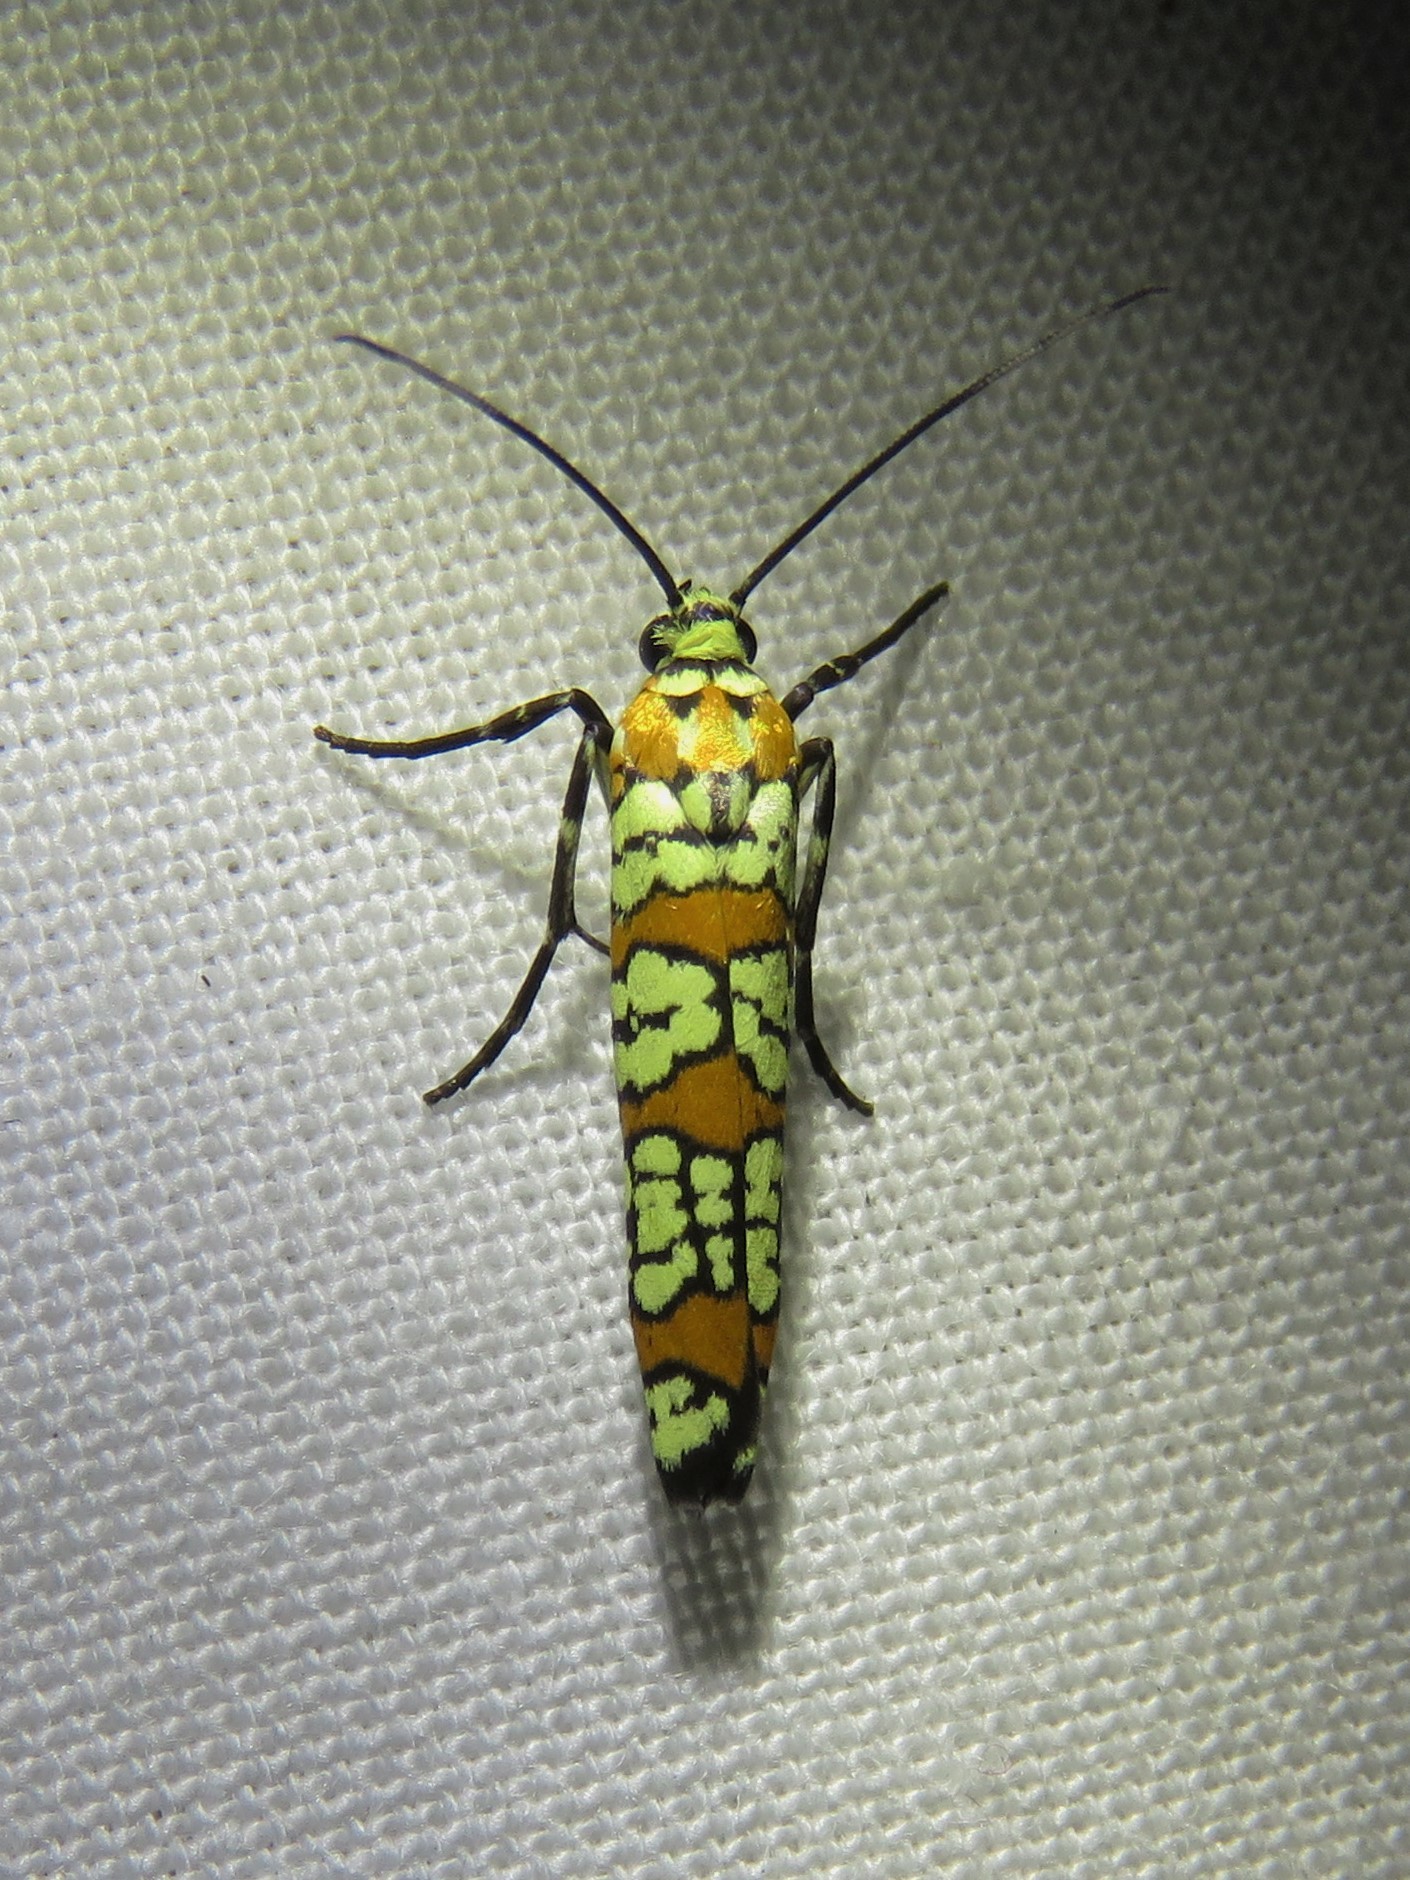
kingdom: Animalia
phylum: Arthropoda
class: Insecta
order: Lepidoptera
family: Attevidae
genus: Atteva
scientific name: Atteva punctella
